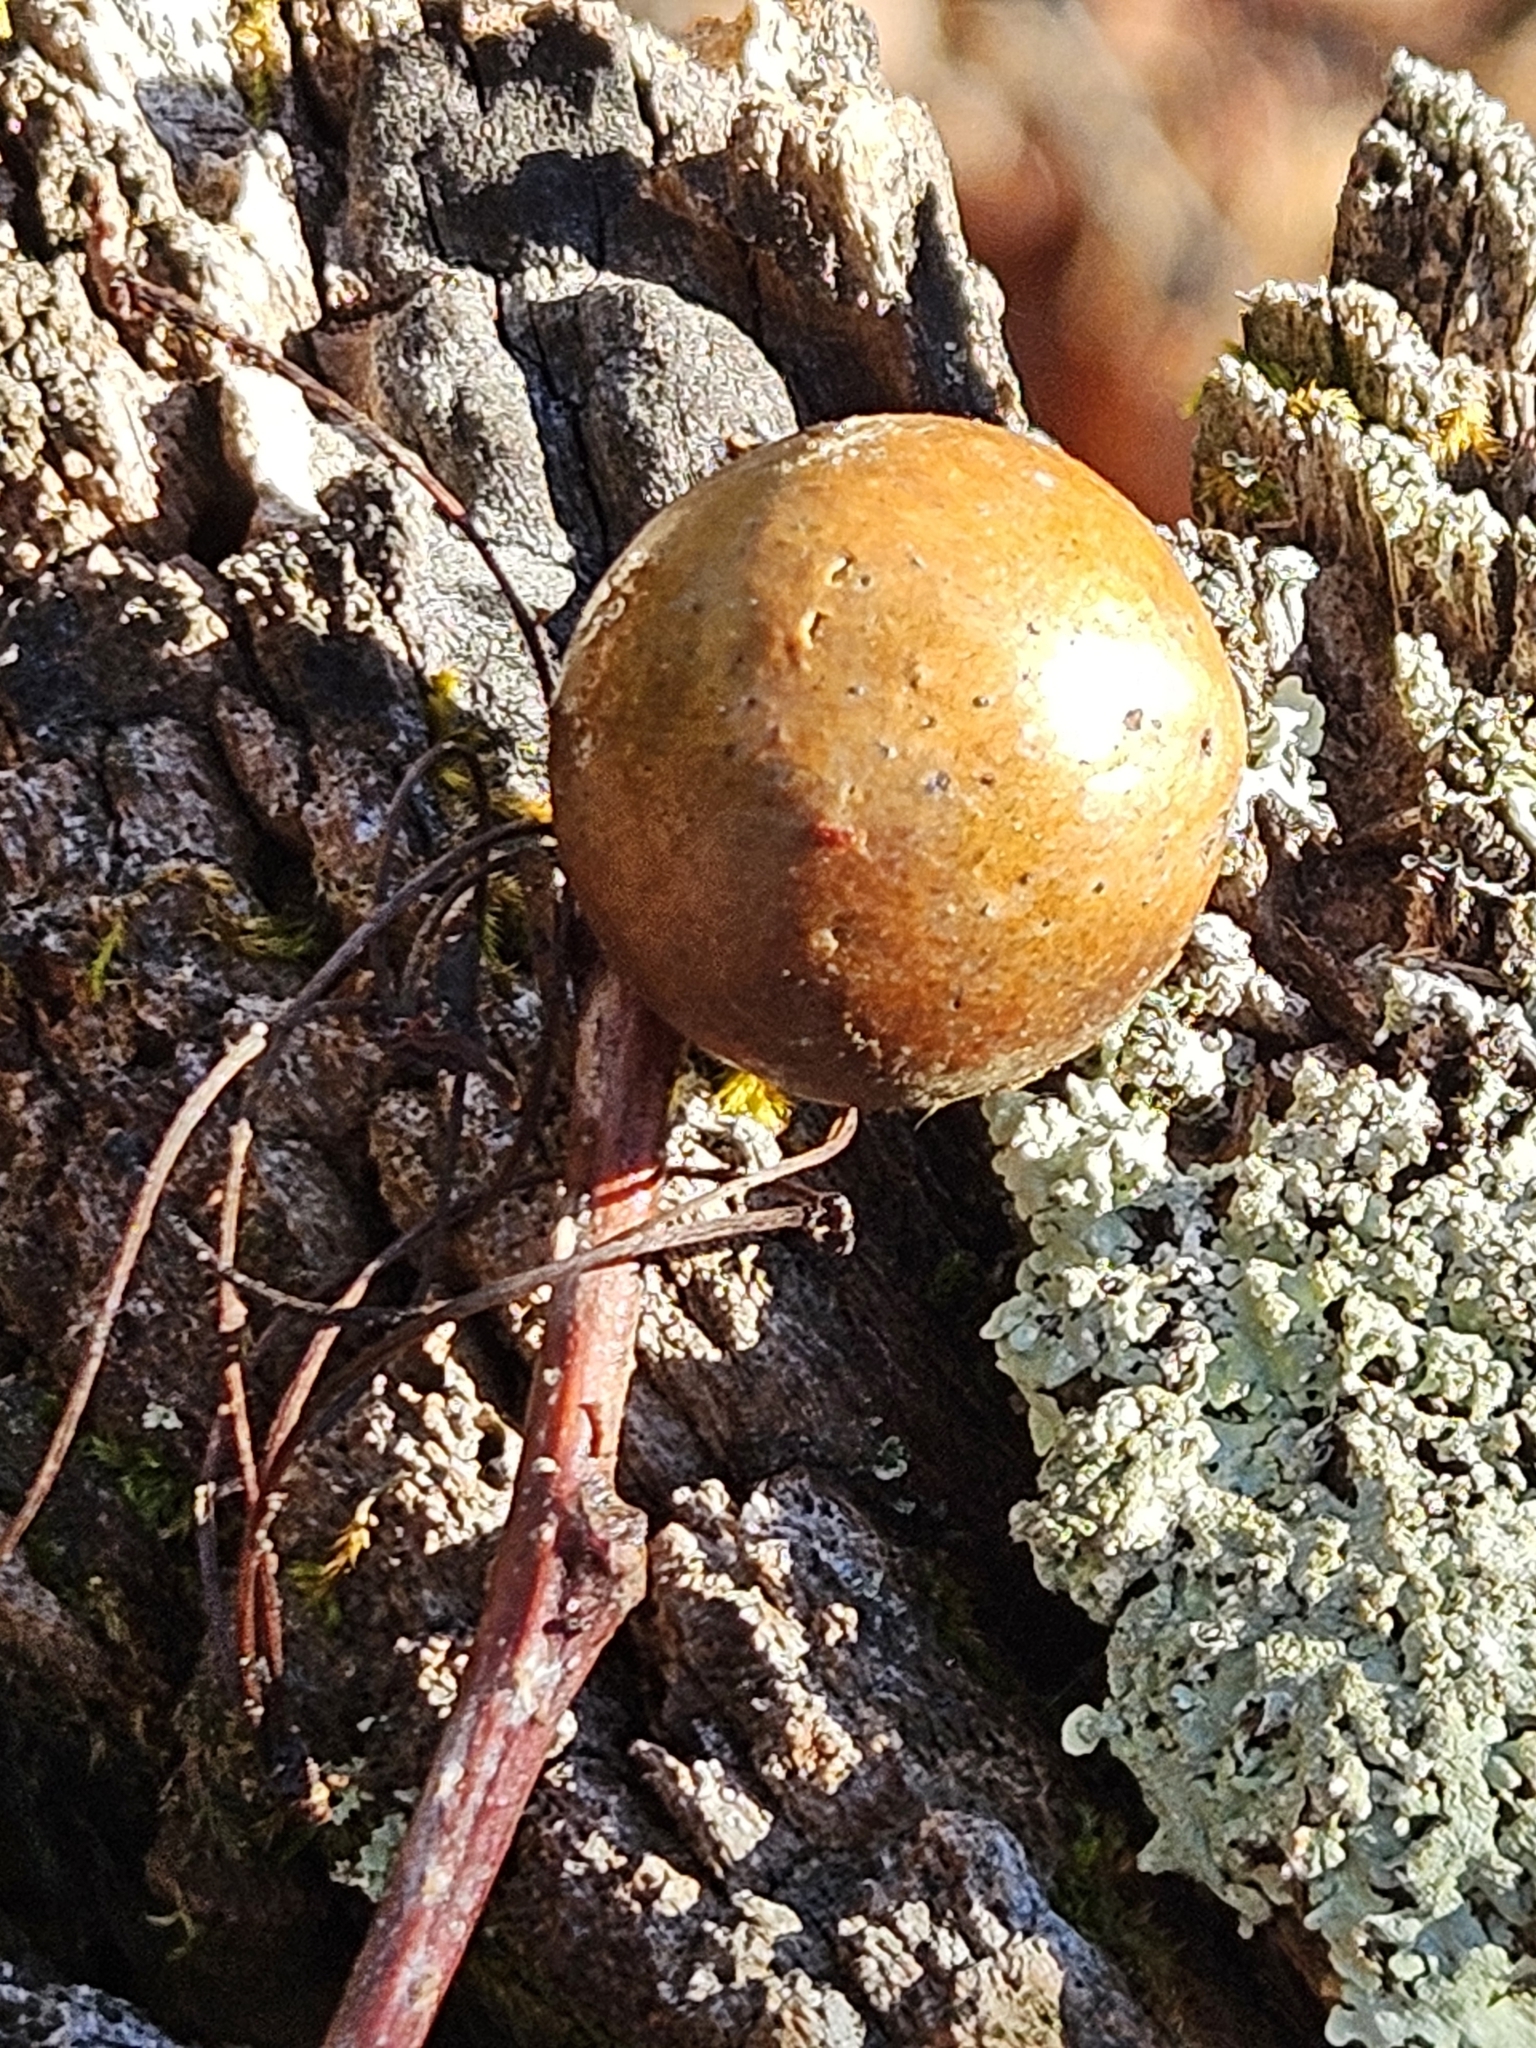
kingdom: Animalia
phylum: Arthropoda
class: Insecta
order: Hymenoptera
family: Cynipidae
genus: Disholcaspis
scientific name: Disholcaspis quercusglobulus
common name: Round bullet gall wasp
